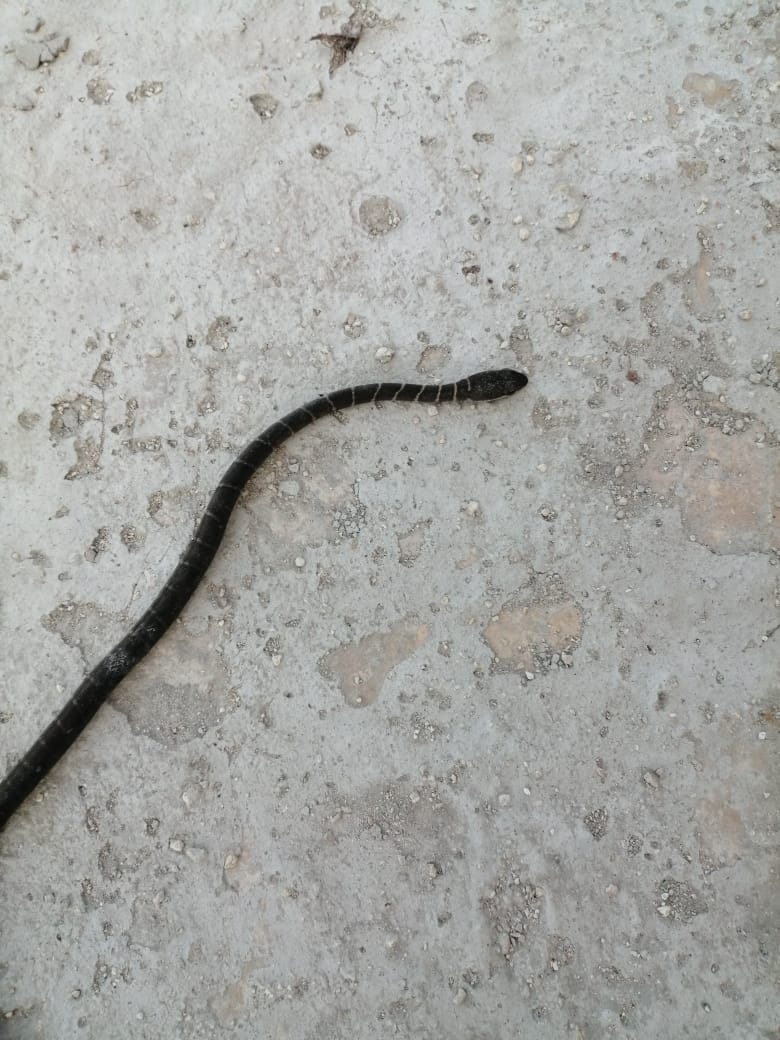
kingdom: Animalia
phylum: Chordata
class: Squamata
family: Colubridae
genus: Mastigodryas
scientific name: Mastigodryas melanolomus
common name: Salmon-bellied racer
